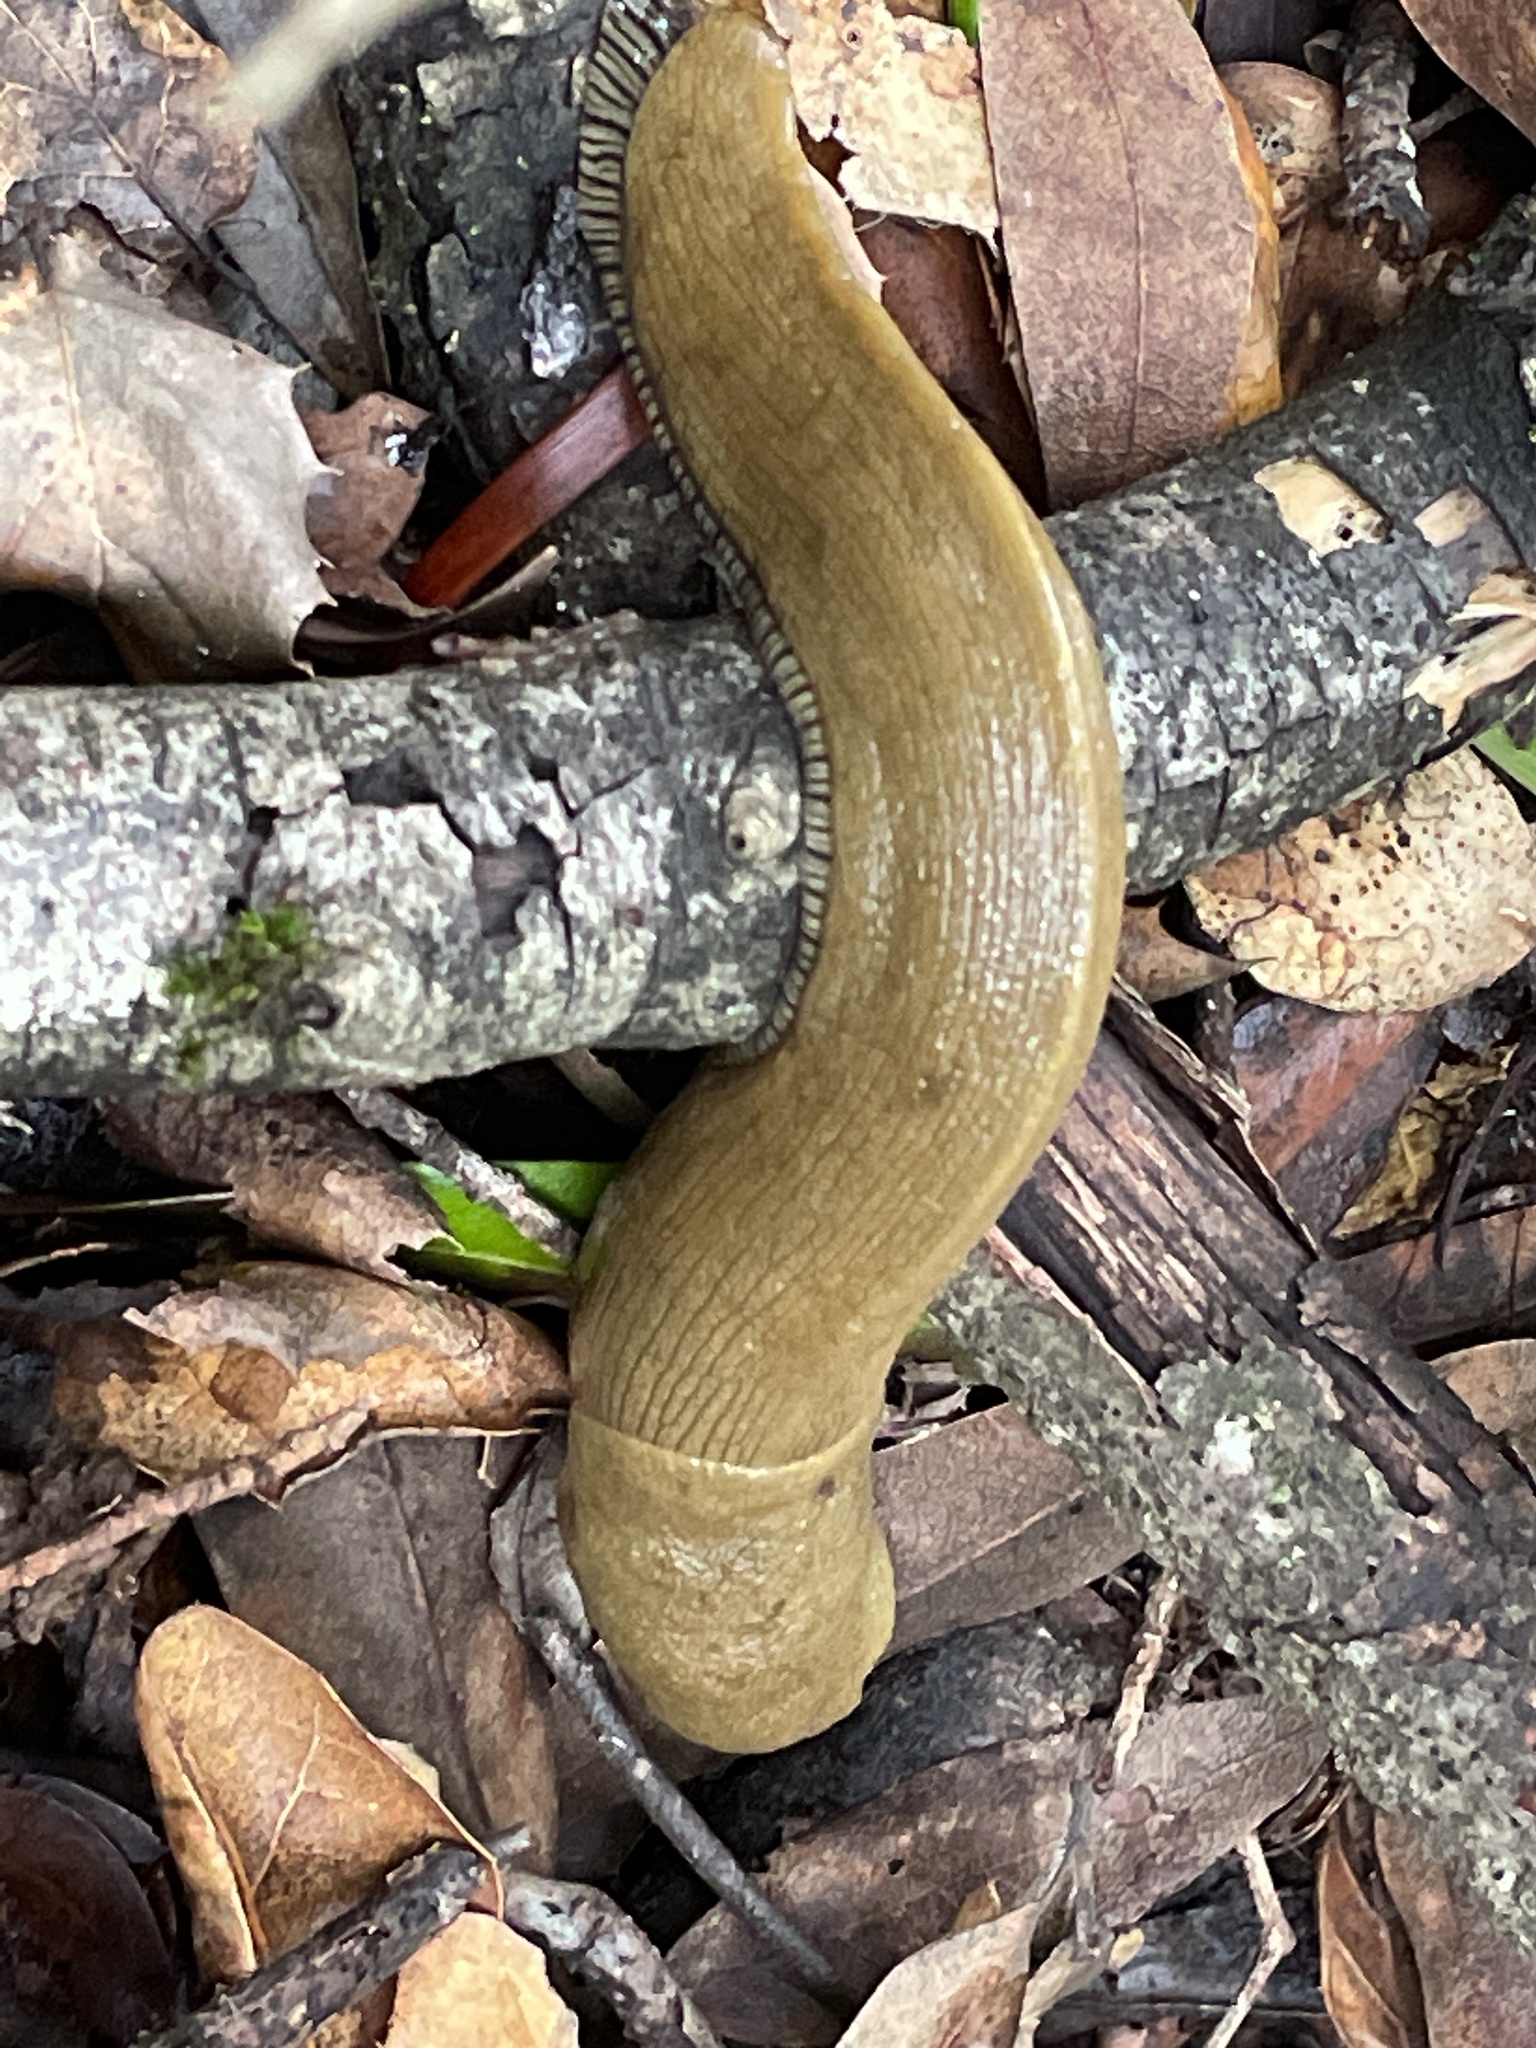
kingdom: Animalia
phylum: Mollusca
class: Gastropoda
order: Stylommatophora
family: Ariolimacidae
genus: Ariolimax
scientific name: Ariolimax buttoni
